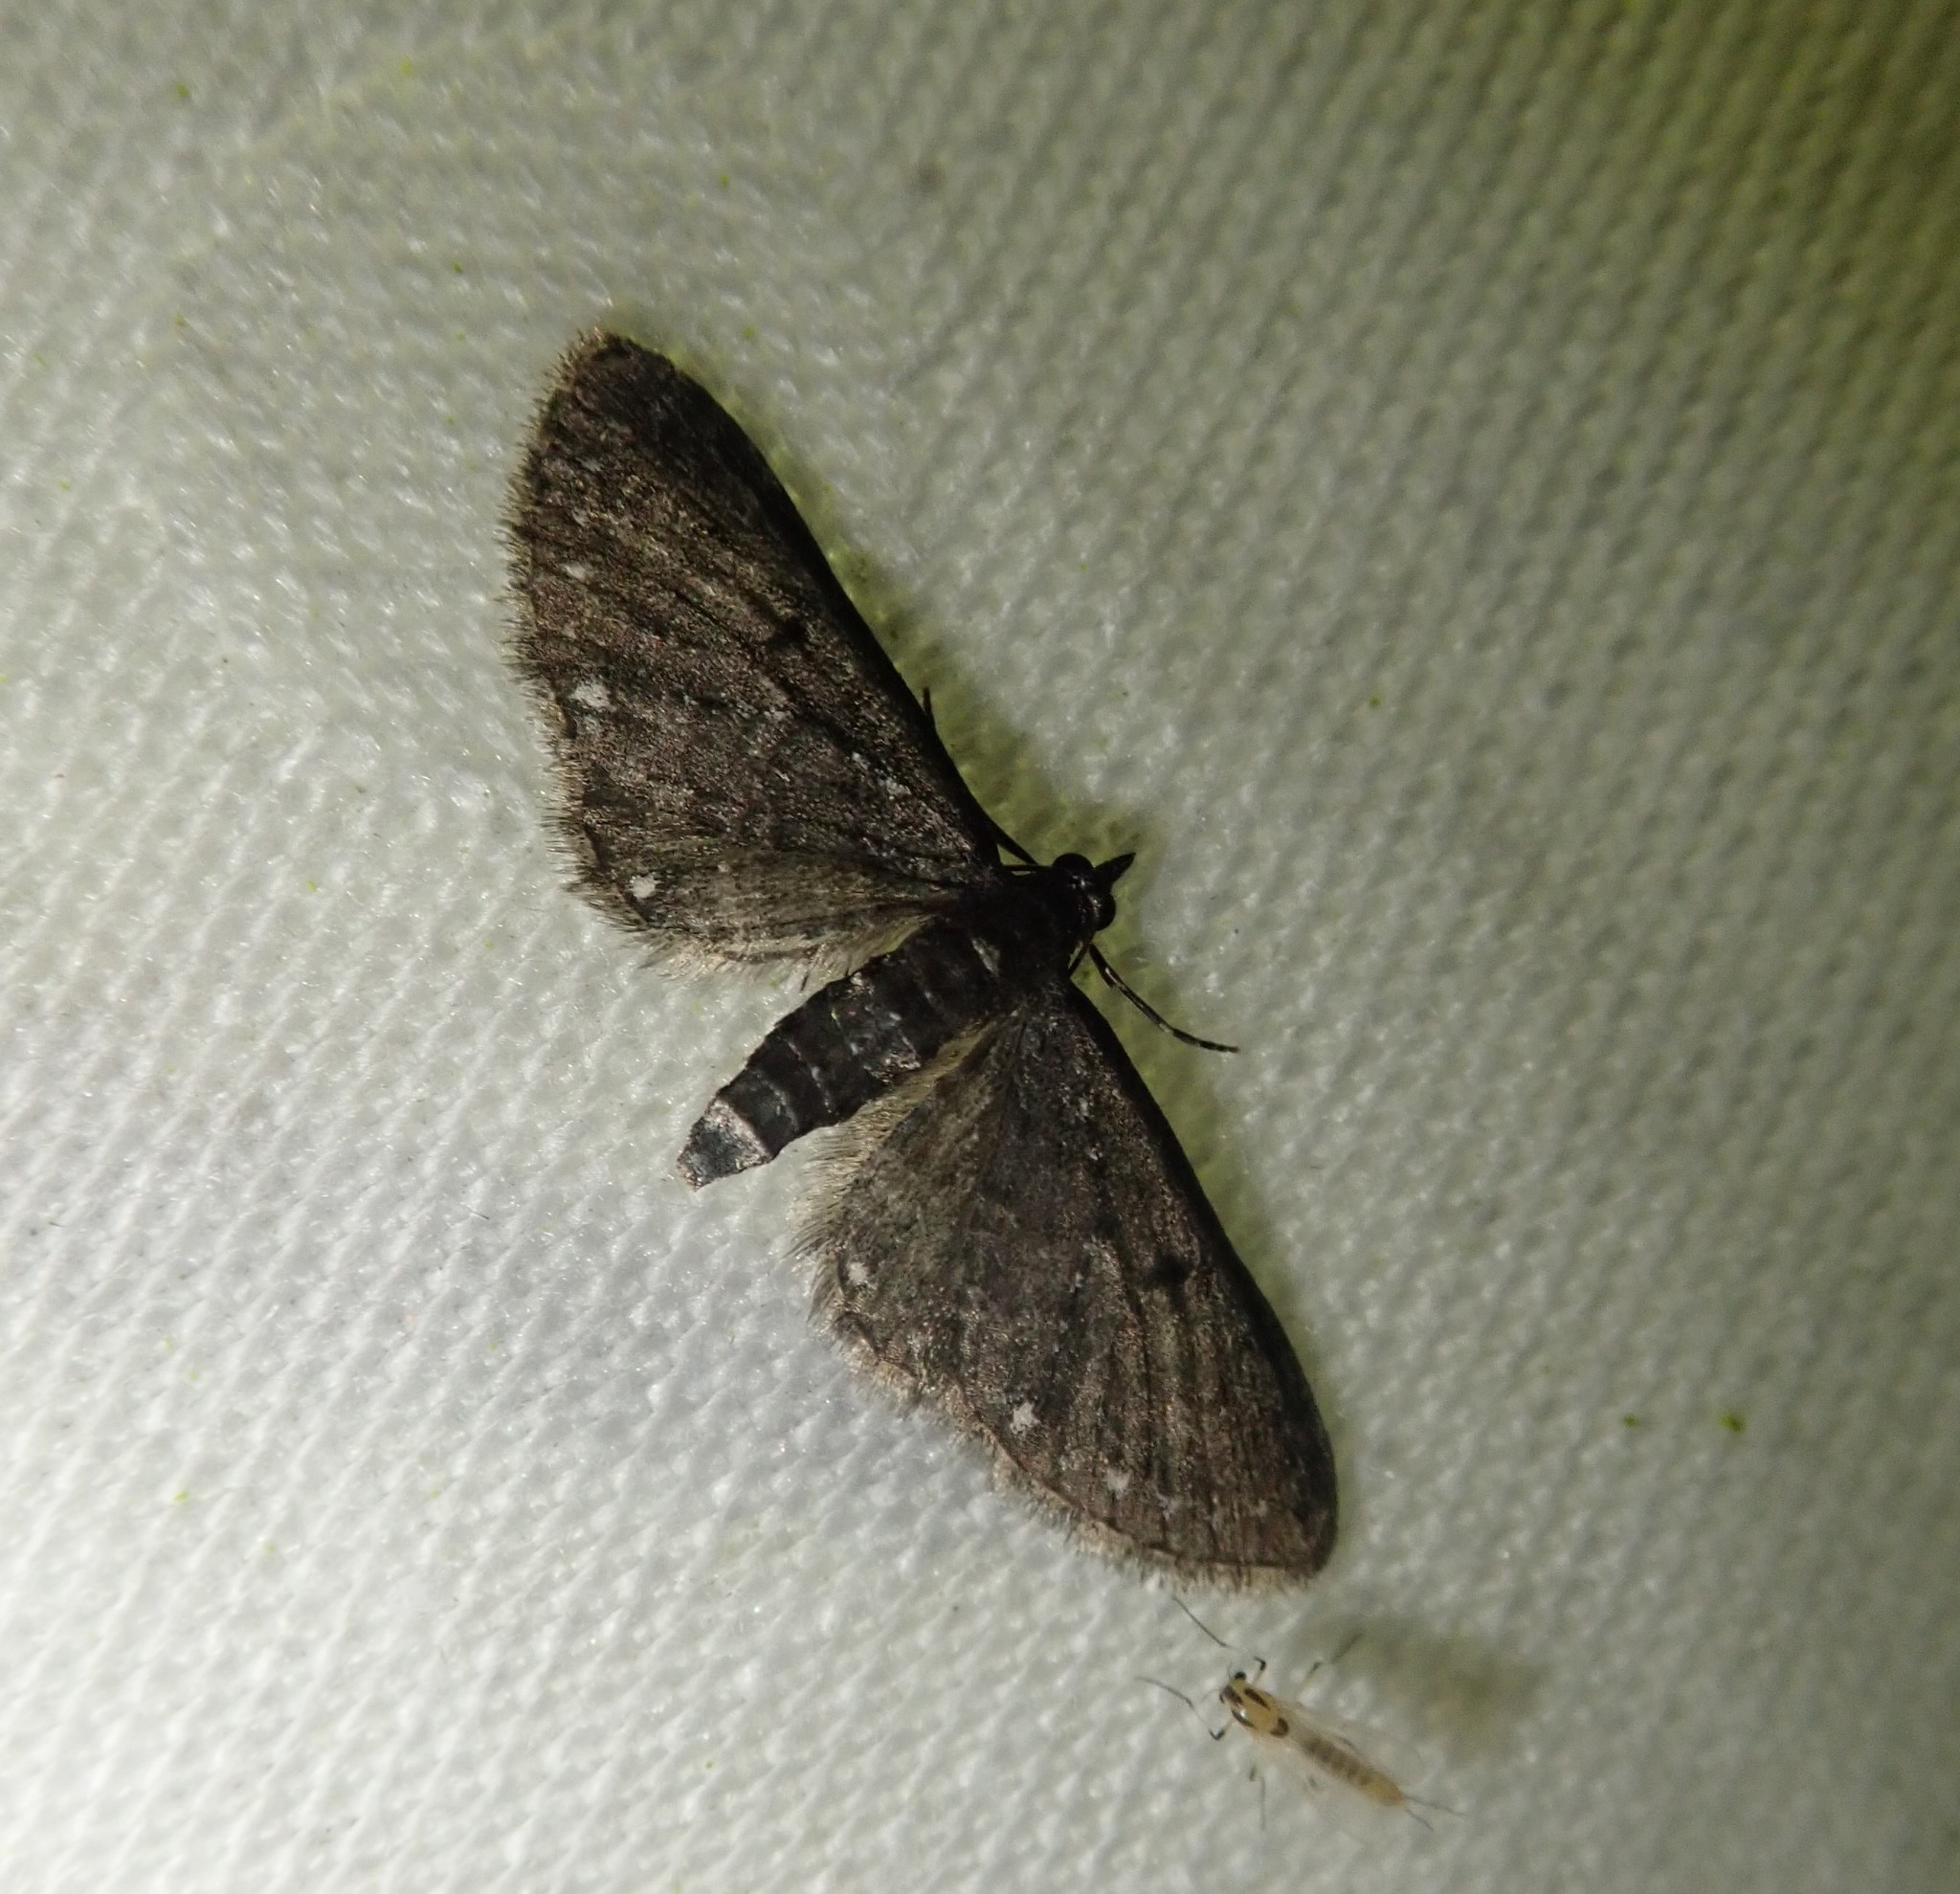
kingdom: Animalia
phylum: Arthropoda
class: Insecta
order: Lepidoptera
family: Geometridae
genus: Eupithecia
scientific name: Eupithecia tripunctaria
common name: White-spotted pug
